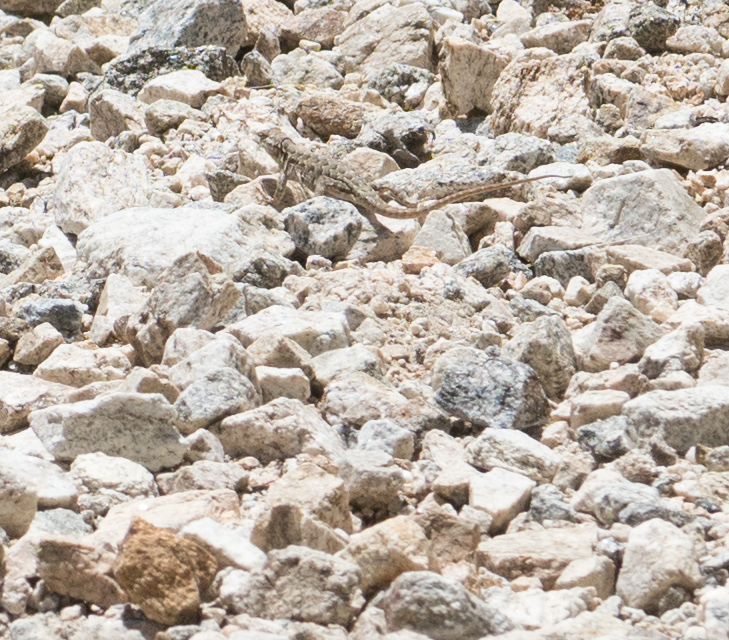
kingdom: Animalia
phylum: Chordata
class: Squamata
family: Phrynosomatidae
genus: Uta
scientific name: Uta stansburiana
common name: Side-blotched lizard
